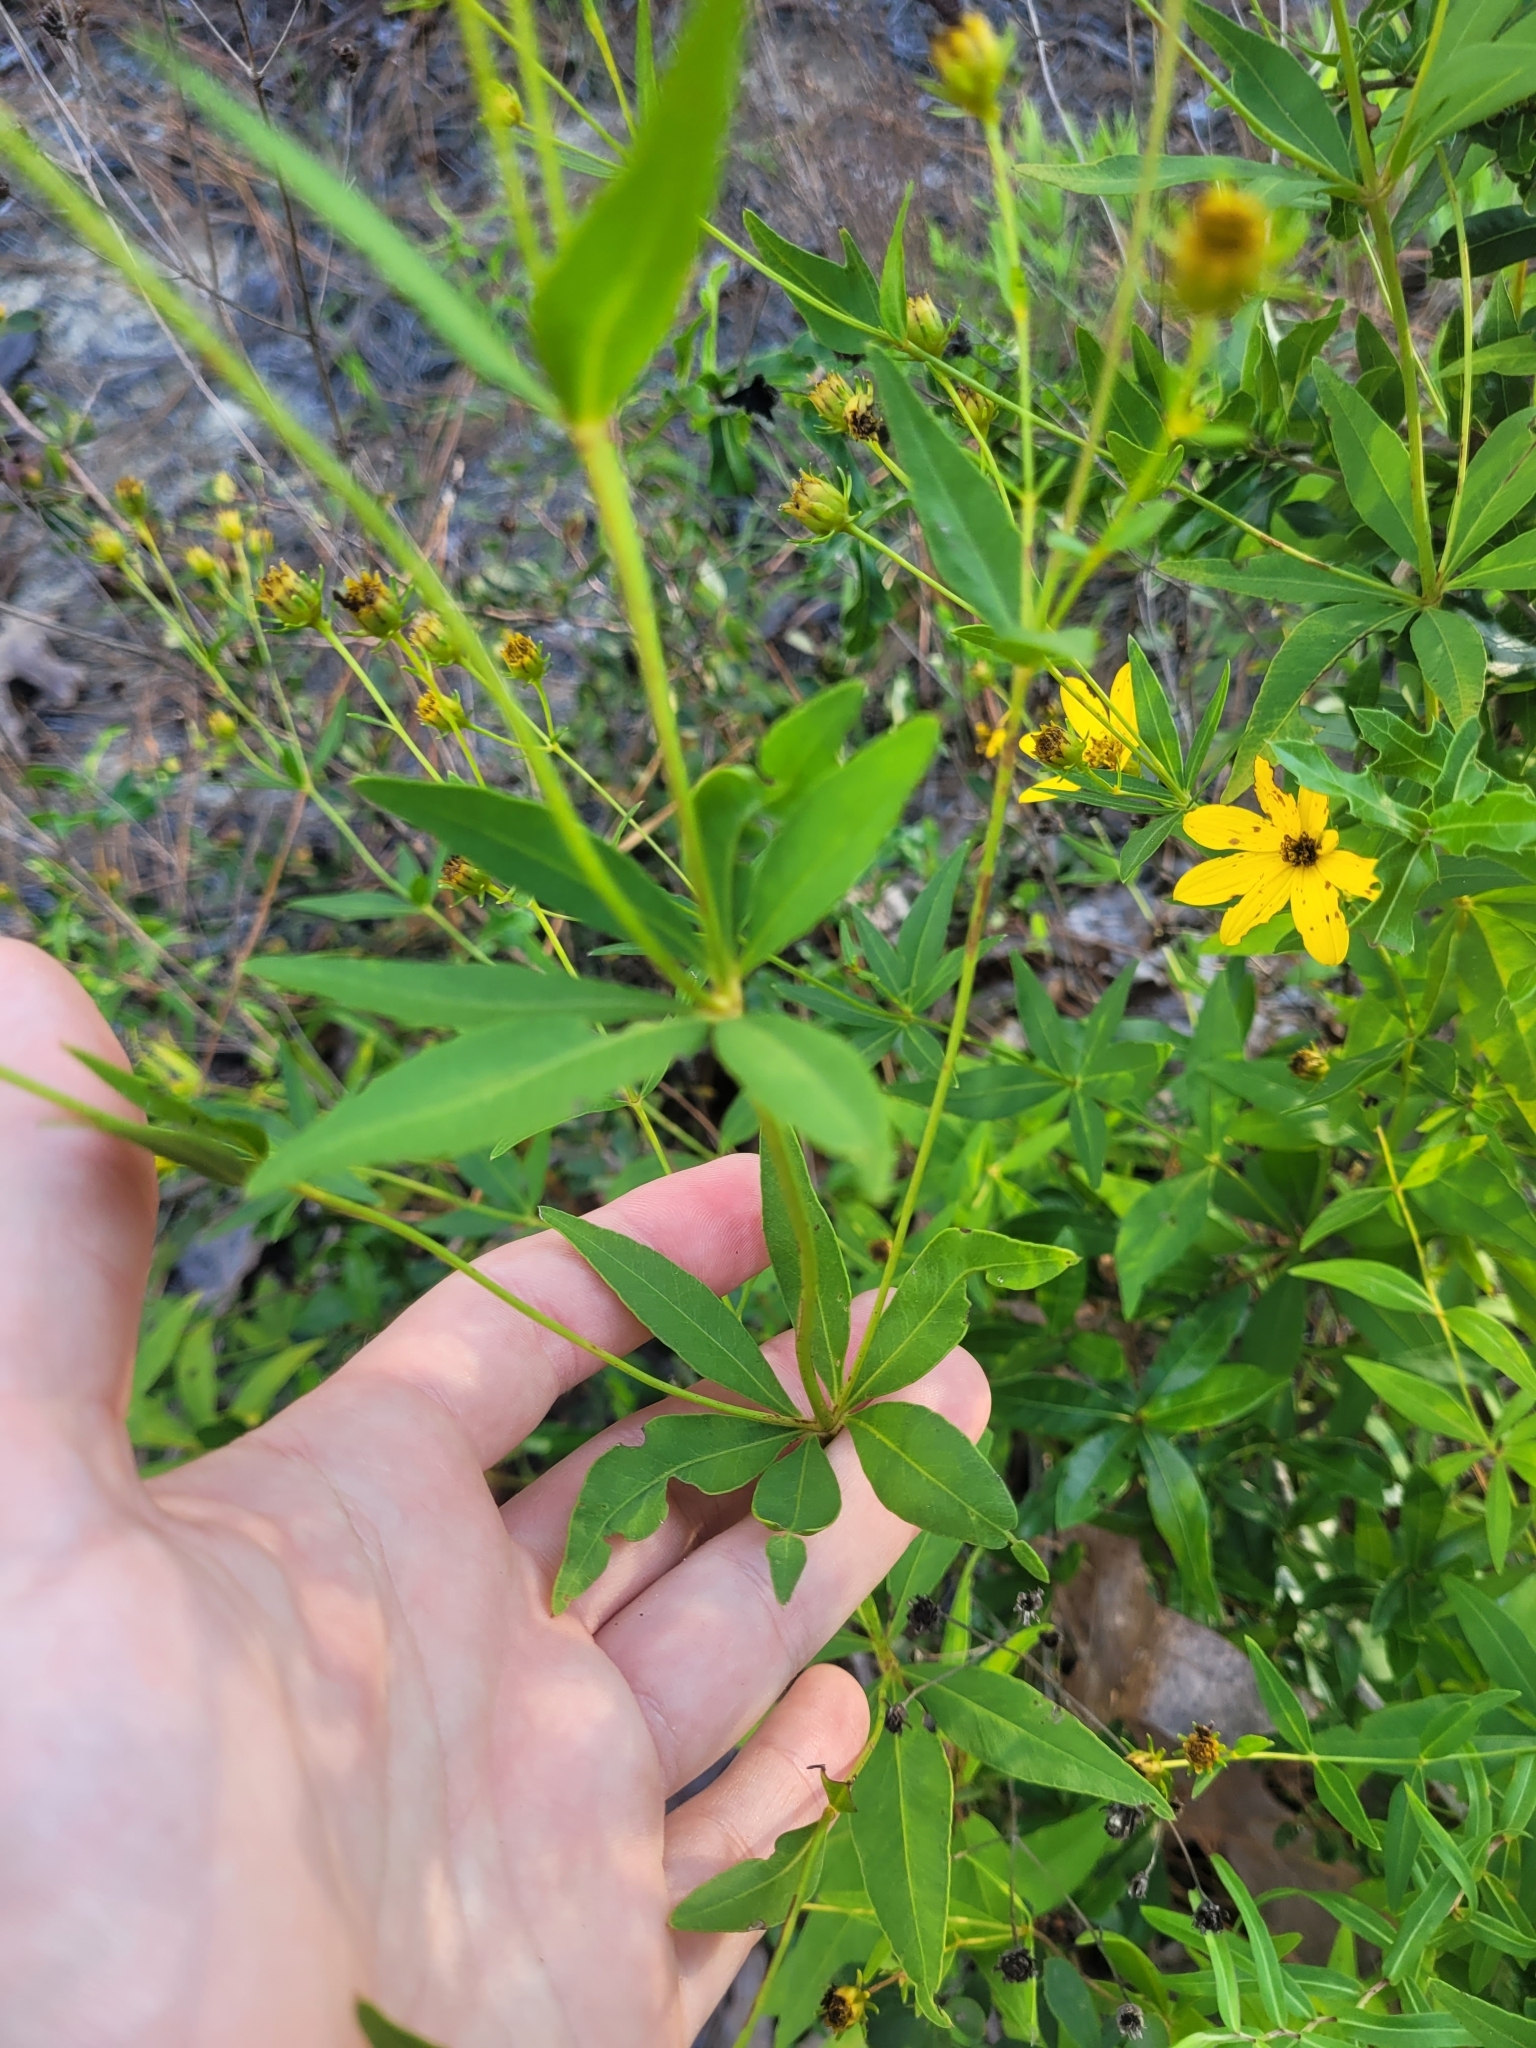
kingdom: Plantae
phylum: Tracheophyta
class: Magnoliopsida
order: Asterales
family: Asteraceae
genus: Coreopsis
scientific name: Coreopsis major
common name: Forest tickseed
